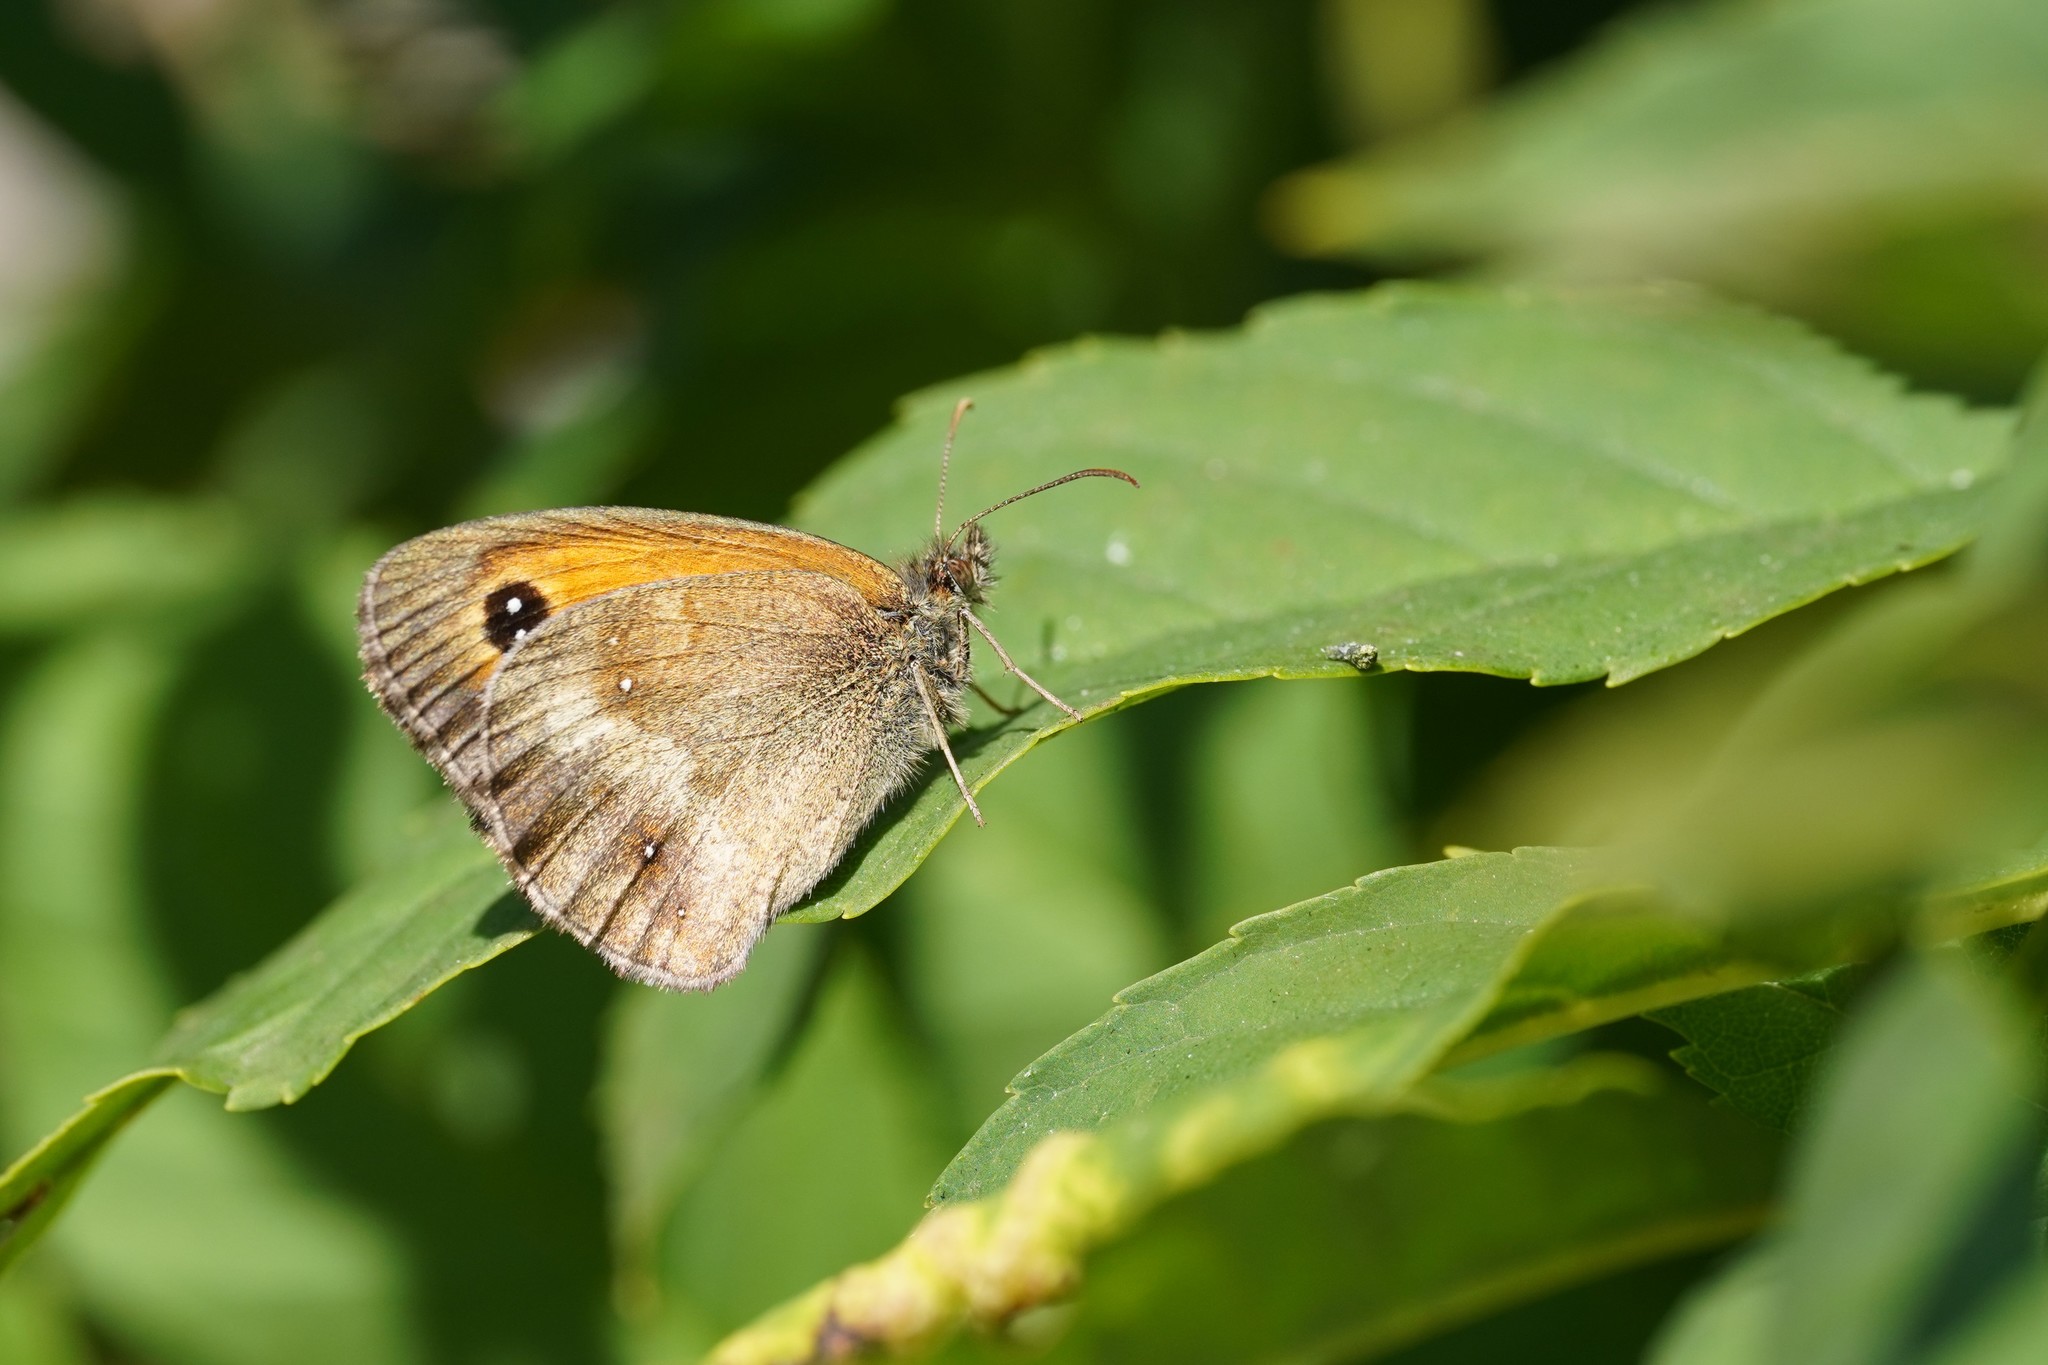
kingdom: Animalia
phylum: Arthropoda
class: Insecta
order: Lepidoptera
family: Nymphalidae
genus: Pyronia
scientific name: Pyronia tithonus
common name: Gatekeeper
